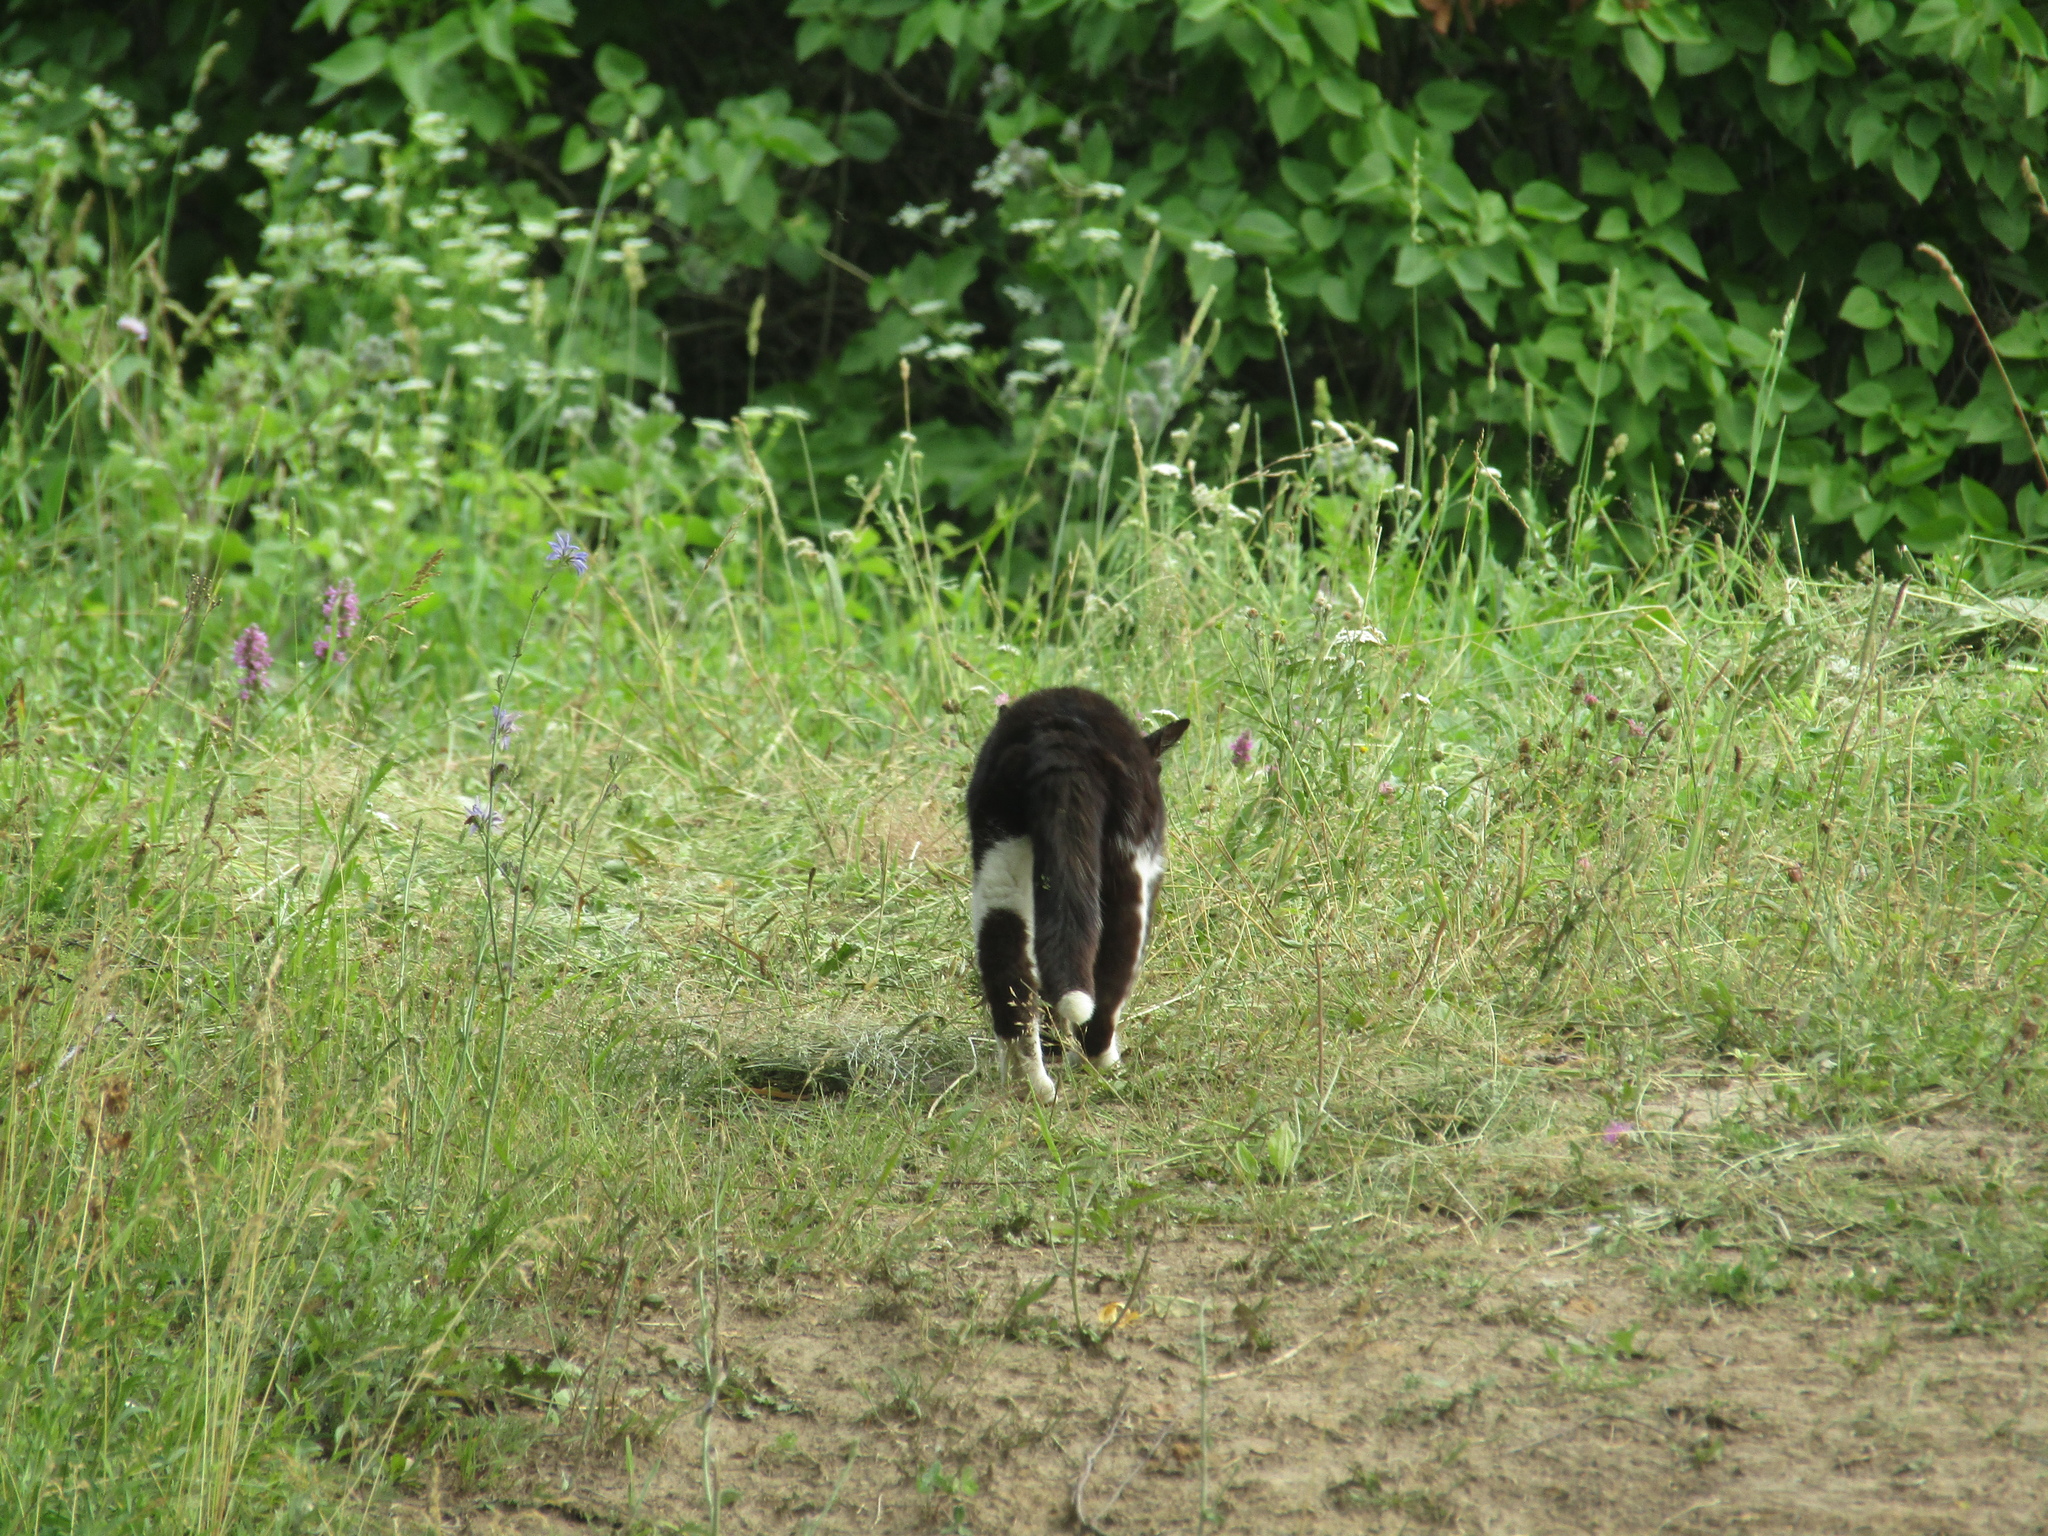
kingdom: Animalia
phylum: Chordata
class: Mammalia
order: Carnivora
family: Felidae
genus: Felis
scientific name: Felis catus
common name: Domestic cat
